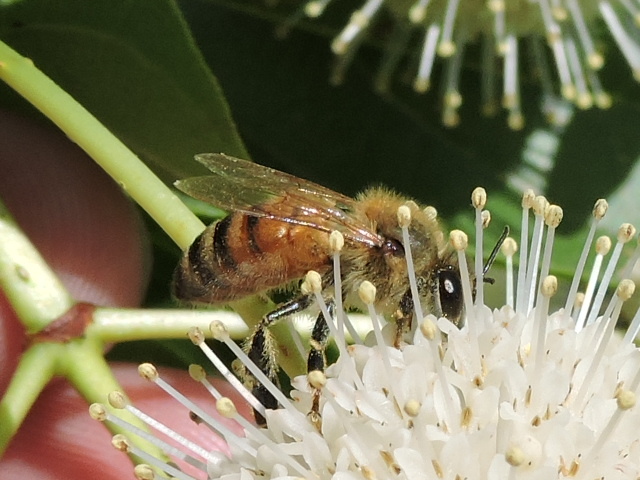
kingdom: Animalia
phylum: Arthropoda
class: Insecta
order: Hymenoptera
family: Apidae
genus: Apis
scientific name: Apis mellifera
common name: Honey bee
